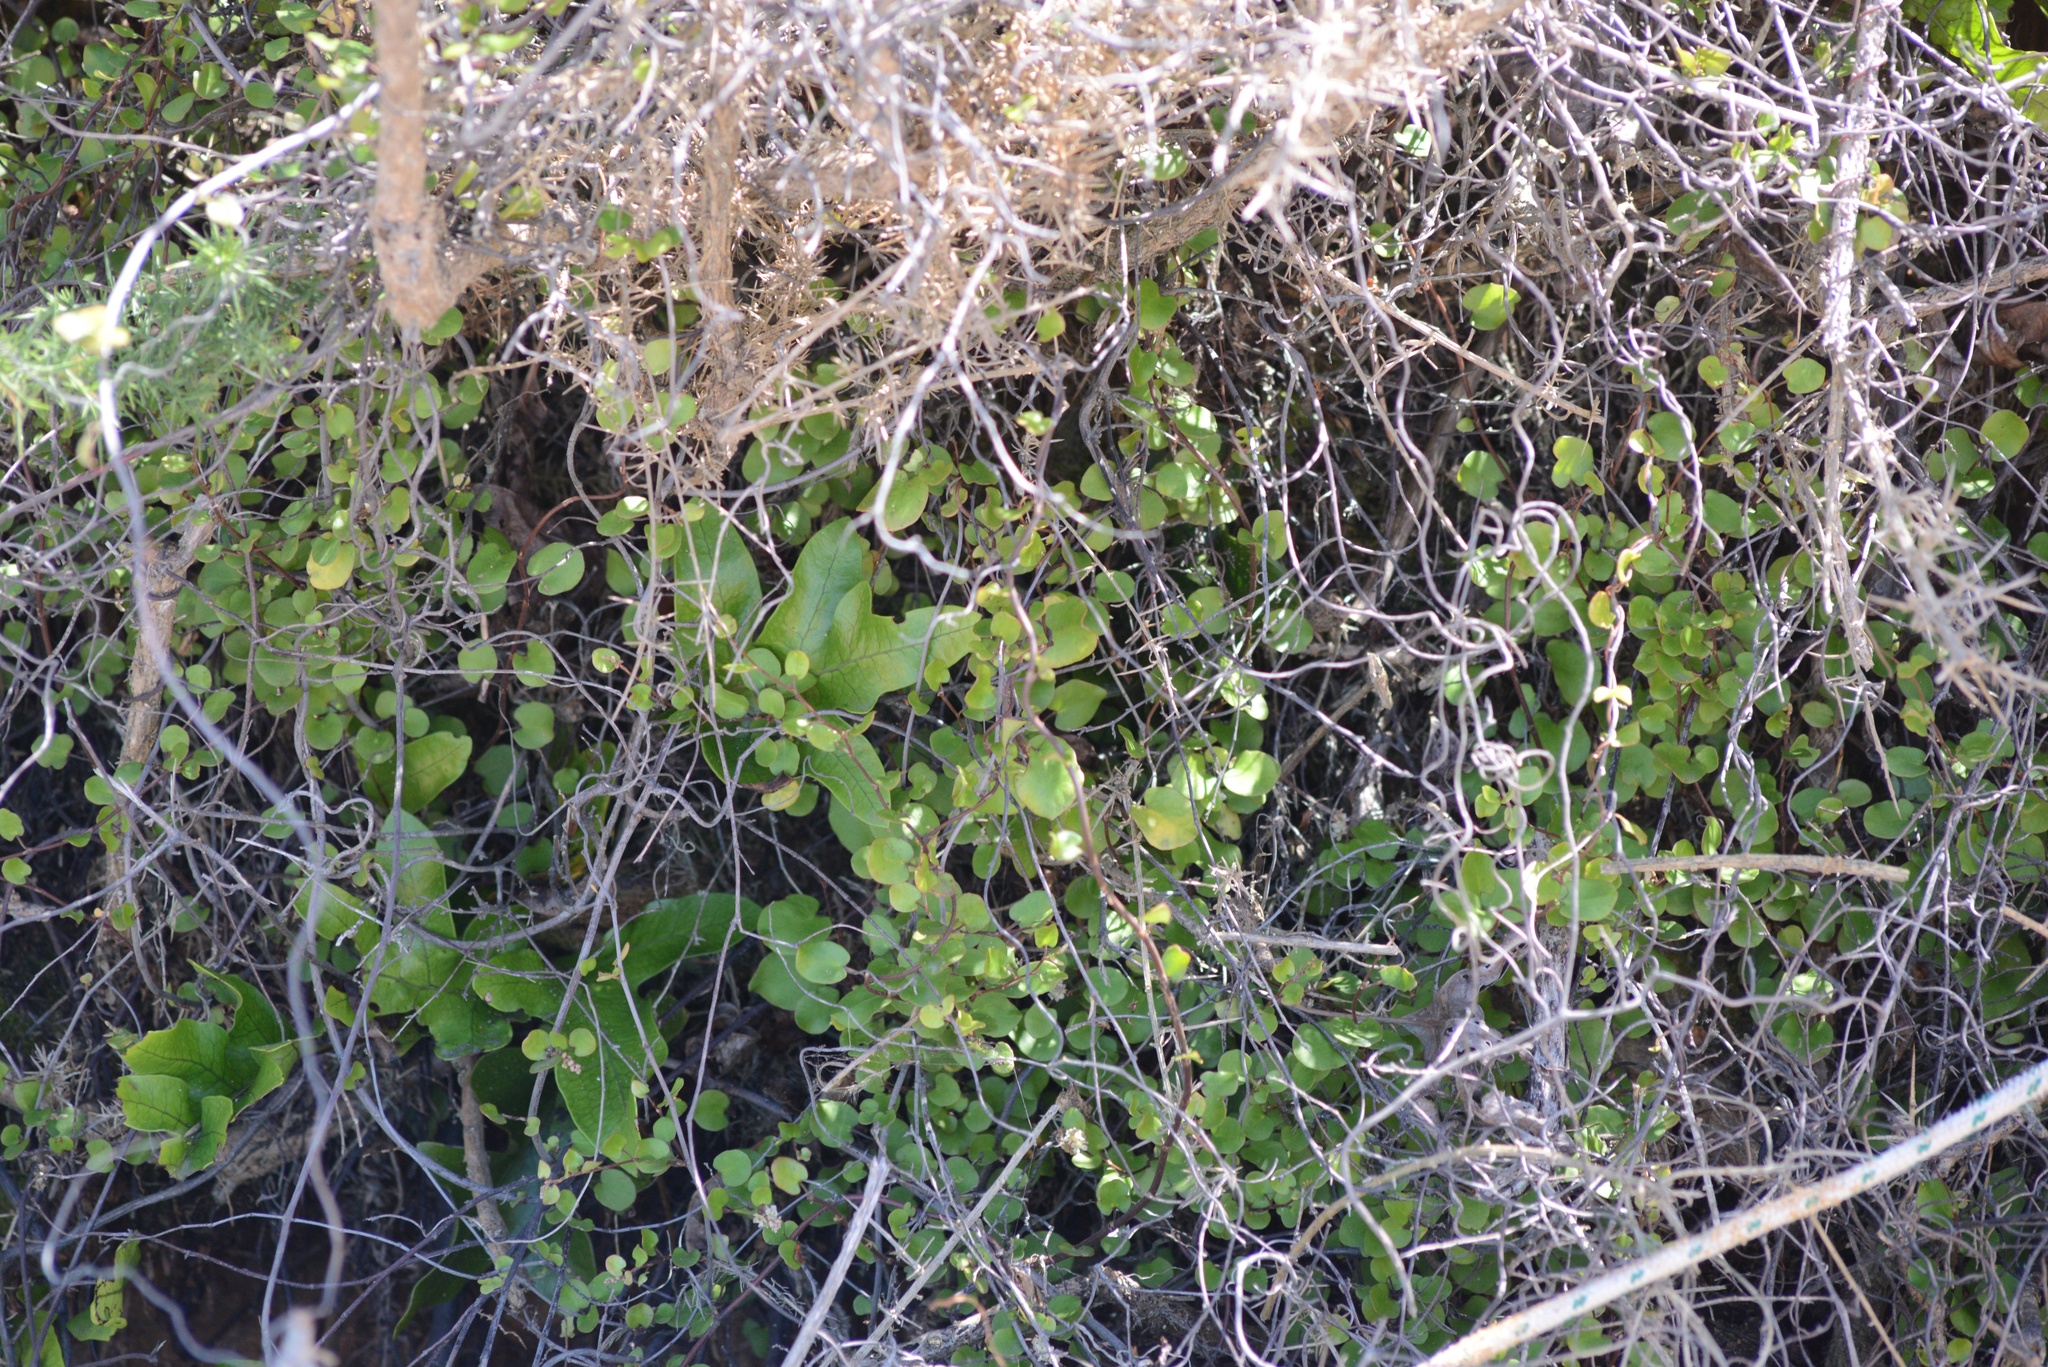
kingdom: Plantae
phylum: Tracheophyta
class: Magnoliopsida
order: Caryophyllales
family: Polygonaceae
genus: Muehlenbeckia
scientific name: Muehlenbeckia complexa
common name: Wireplant
